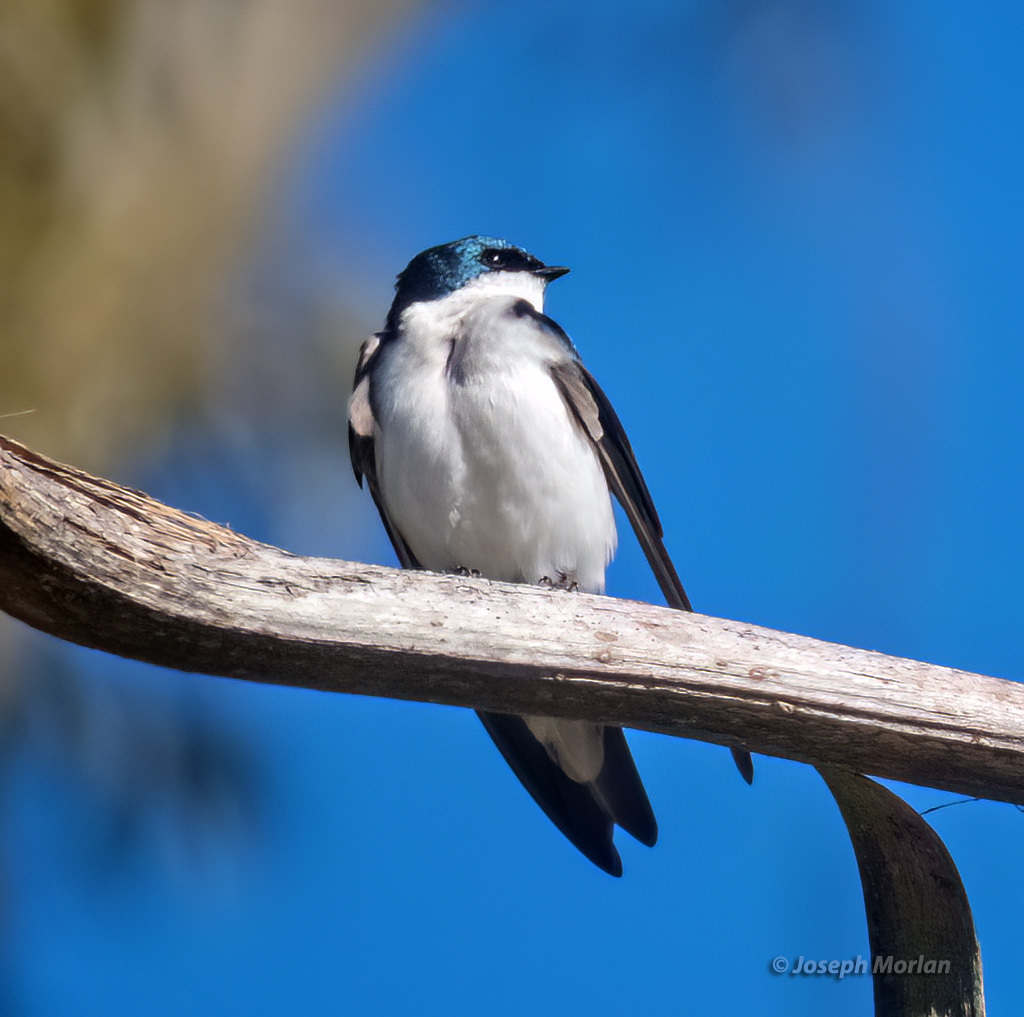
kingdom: Animalia
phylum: Chordata
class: Aves
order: Passeriformes
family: Hirundinidae
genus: Tachycineta
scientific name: Tachycineta bicolor
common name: Tree swallow
